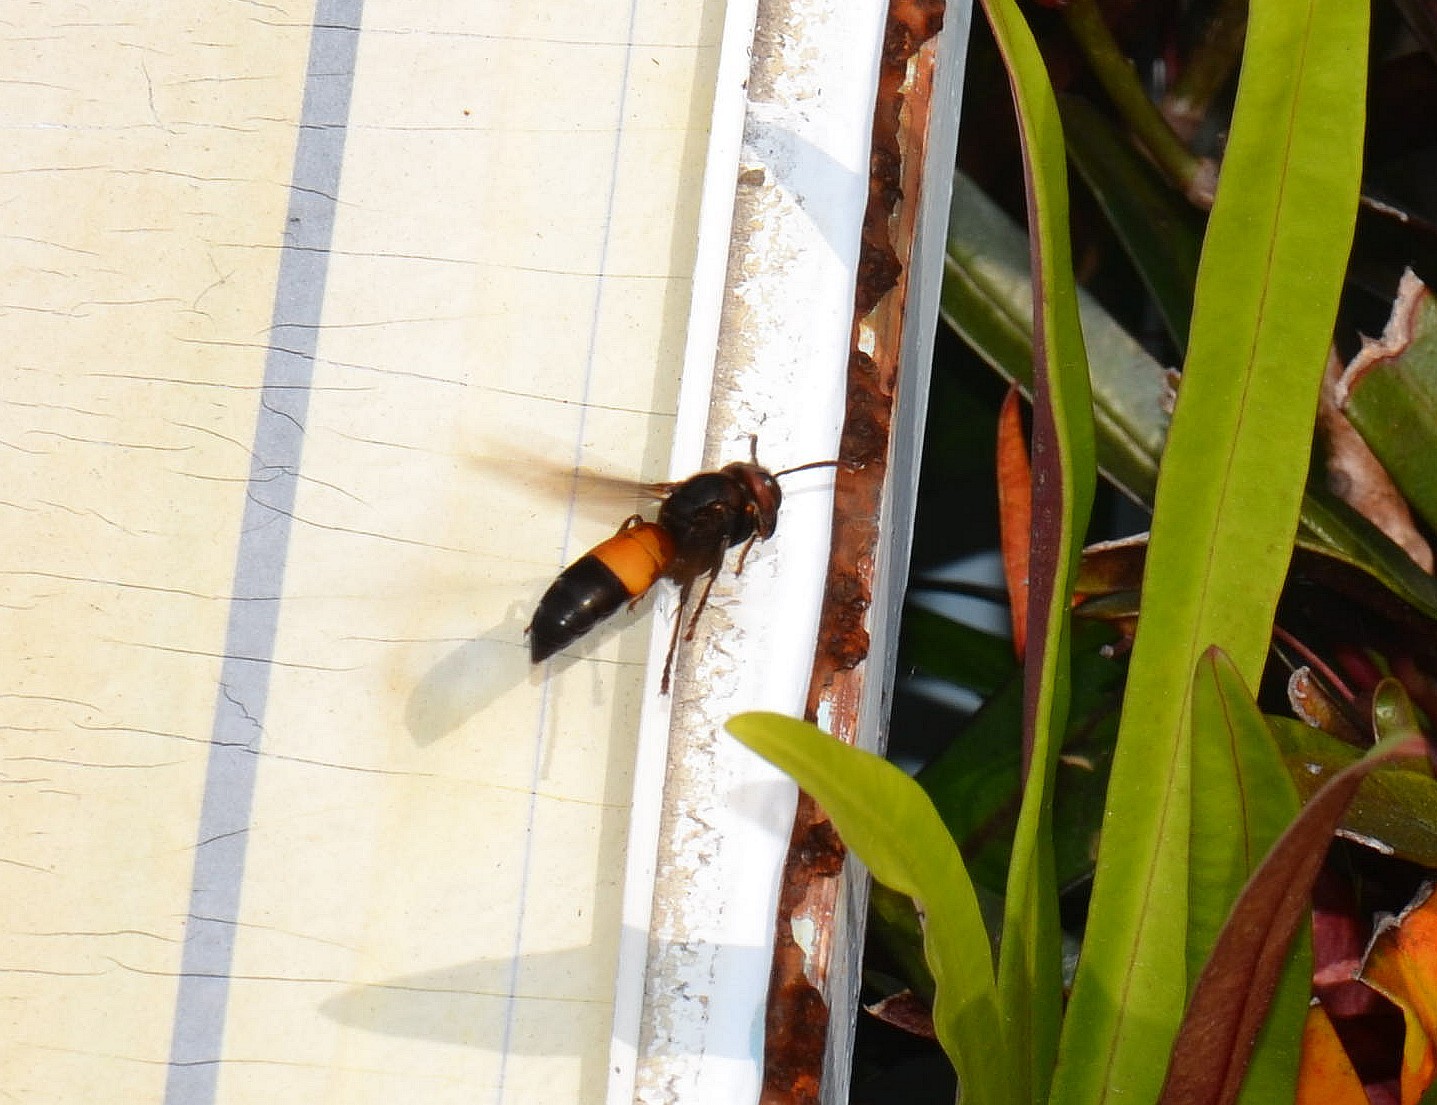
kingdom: Animalia
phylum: Arthropoda
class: Insecta
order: Hymenoptera
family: Vespidae
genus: Vespa
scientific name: Vespa affinis
